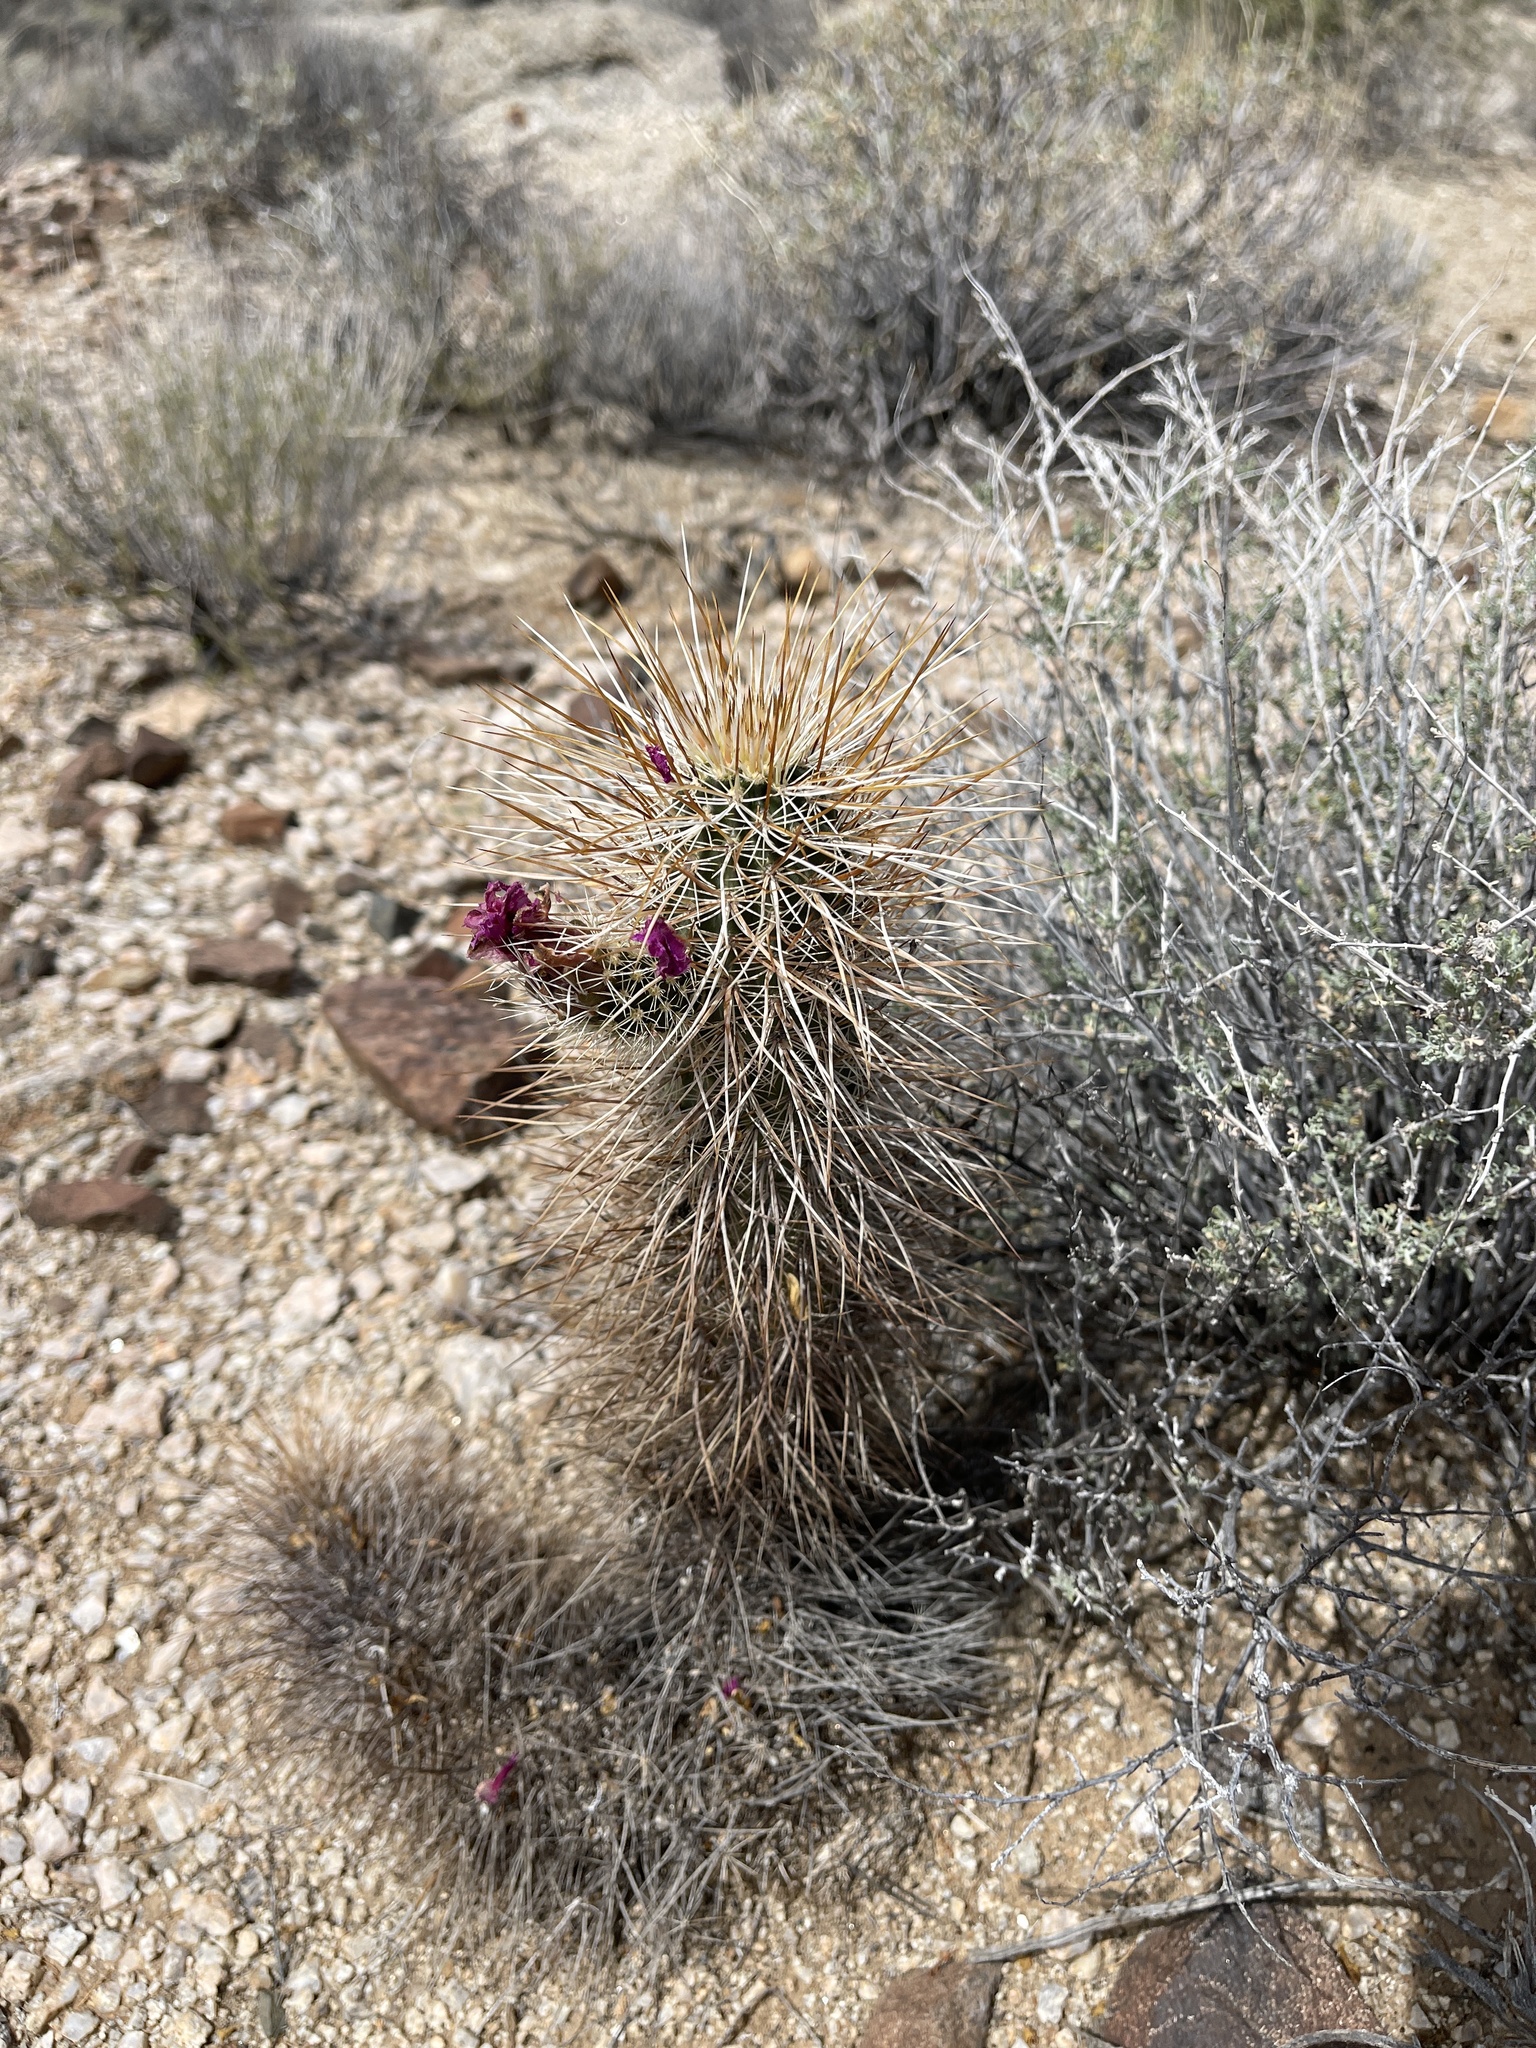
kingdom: Plantae
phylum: Tracheophyta
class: Magnoliopsida
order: Caryophyllales
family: Cactaceae
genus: Echinocereus
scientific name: Echinocereus engelmannii
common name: Engelmann's hedgehog cactus
